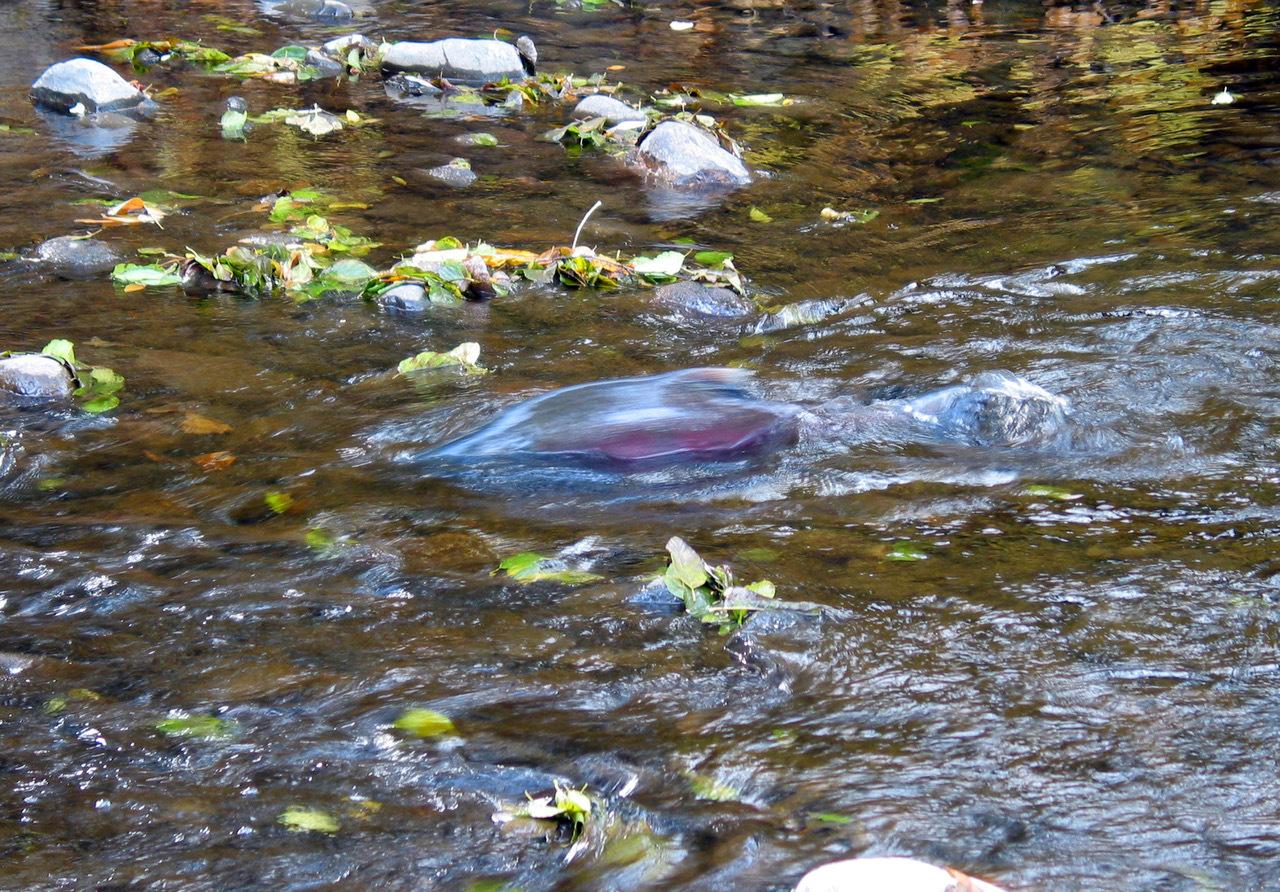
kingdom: Animalia
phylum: Chordata
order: Salmoniformes
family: Salmonidae
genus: Oncorhynchus
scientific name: Oncorhynchus tshawytscha
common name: Chinook salmon
